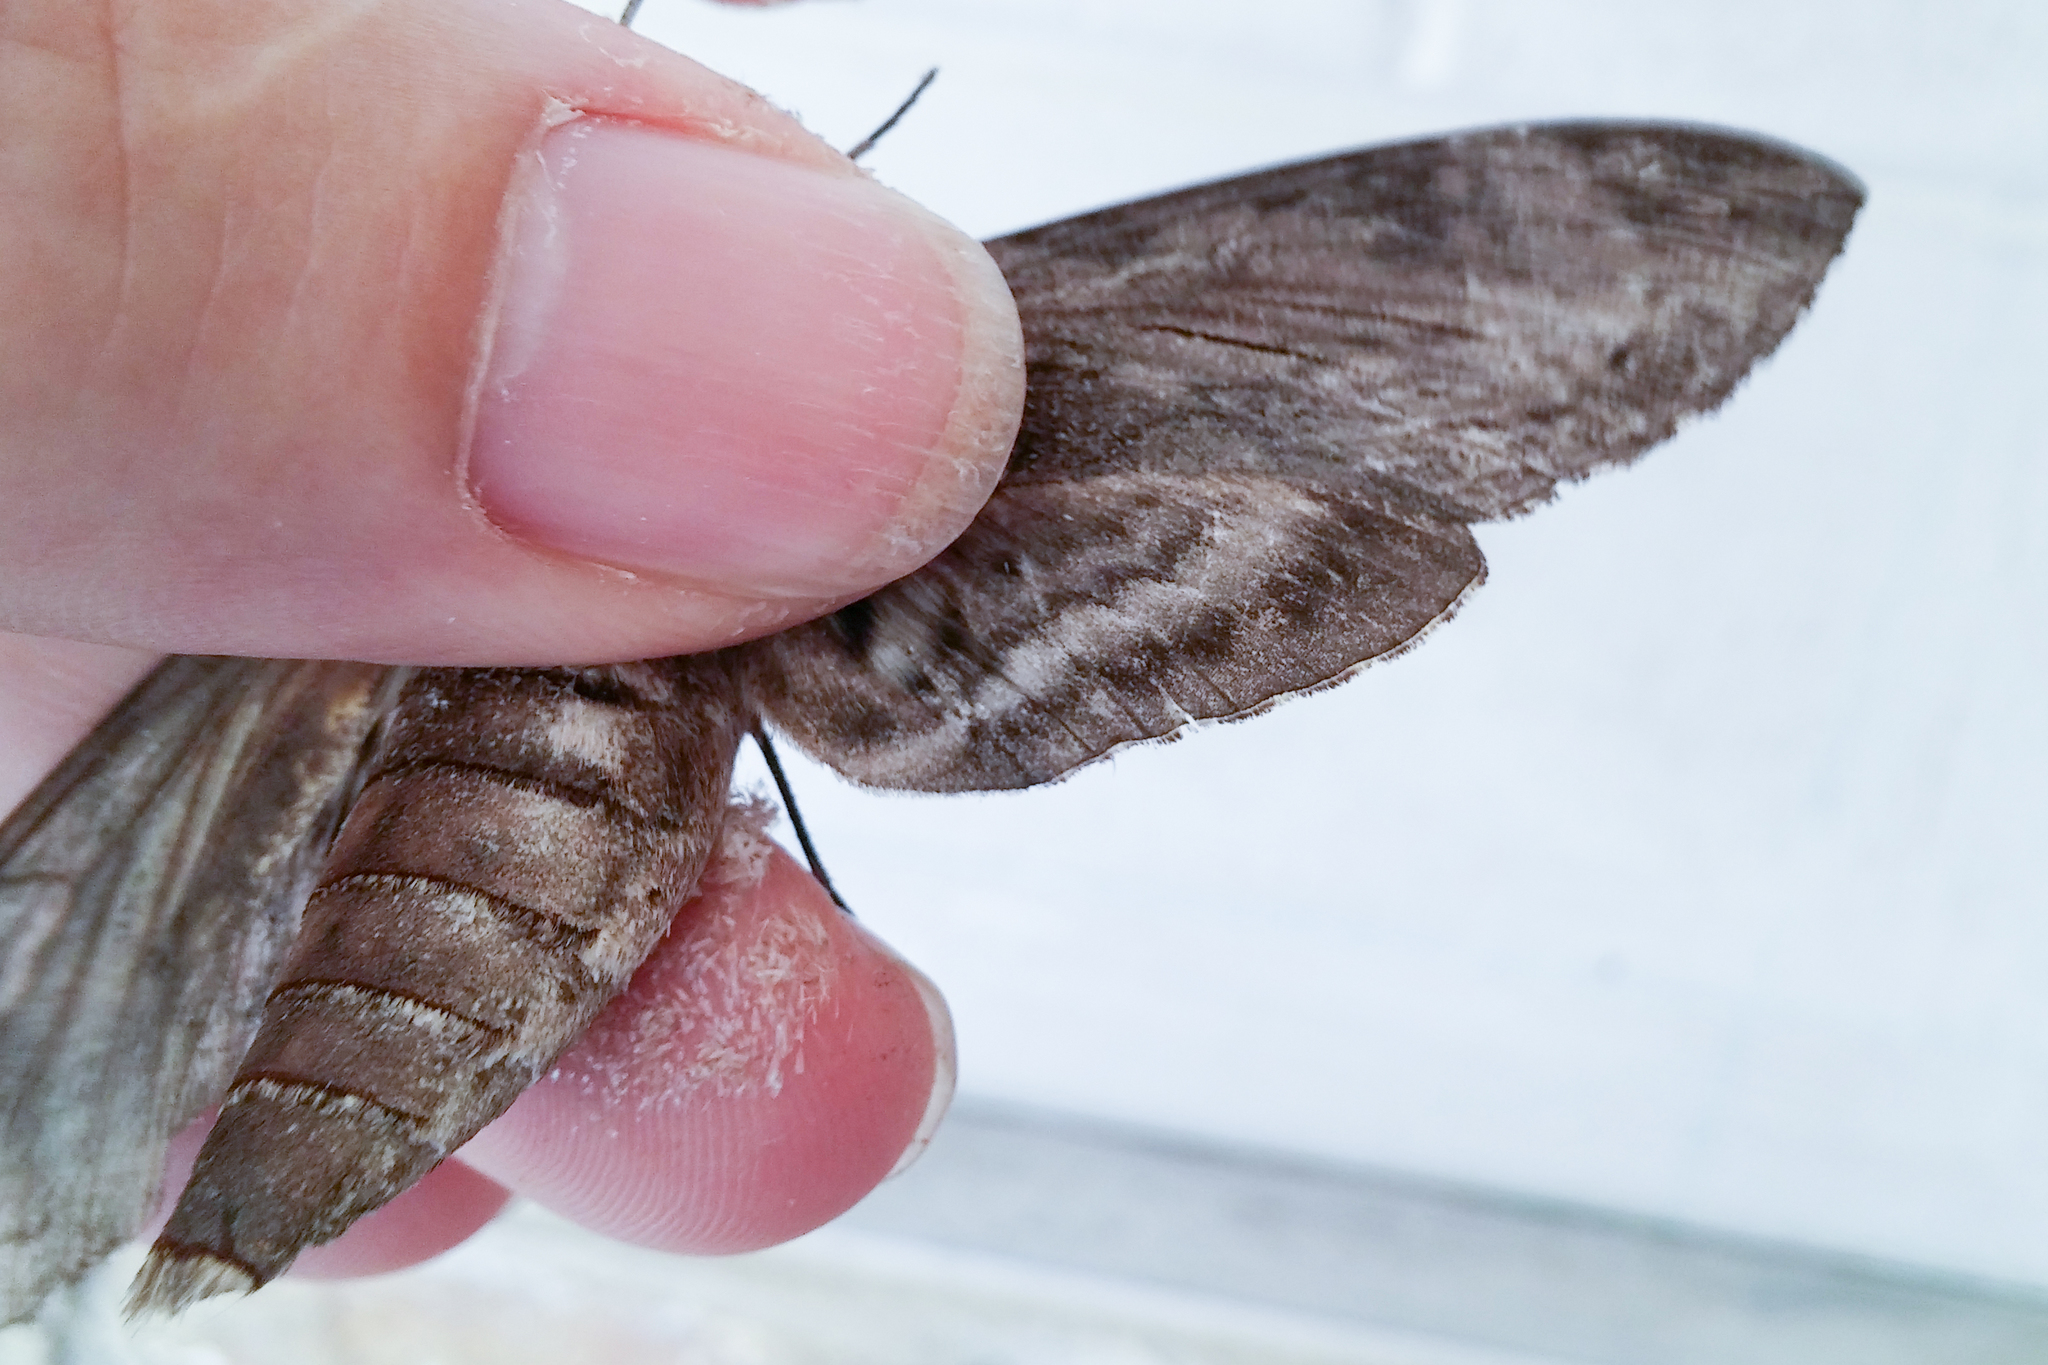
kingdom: Animalia
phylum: Arthropoda
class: Insecta
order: Lepidoptera
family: Sphingidae
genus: Agrius
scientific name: Agrius convolvuli
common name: Convolvulus hawkmoth
